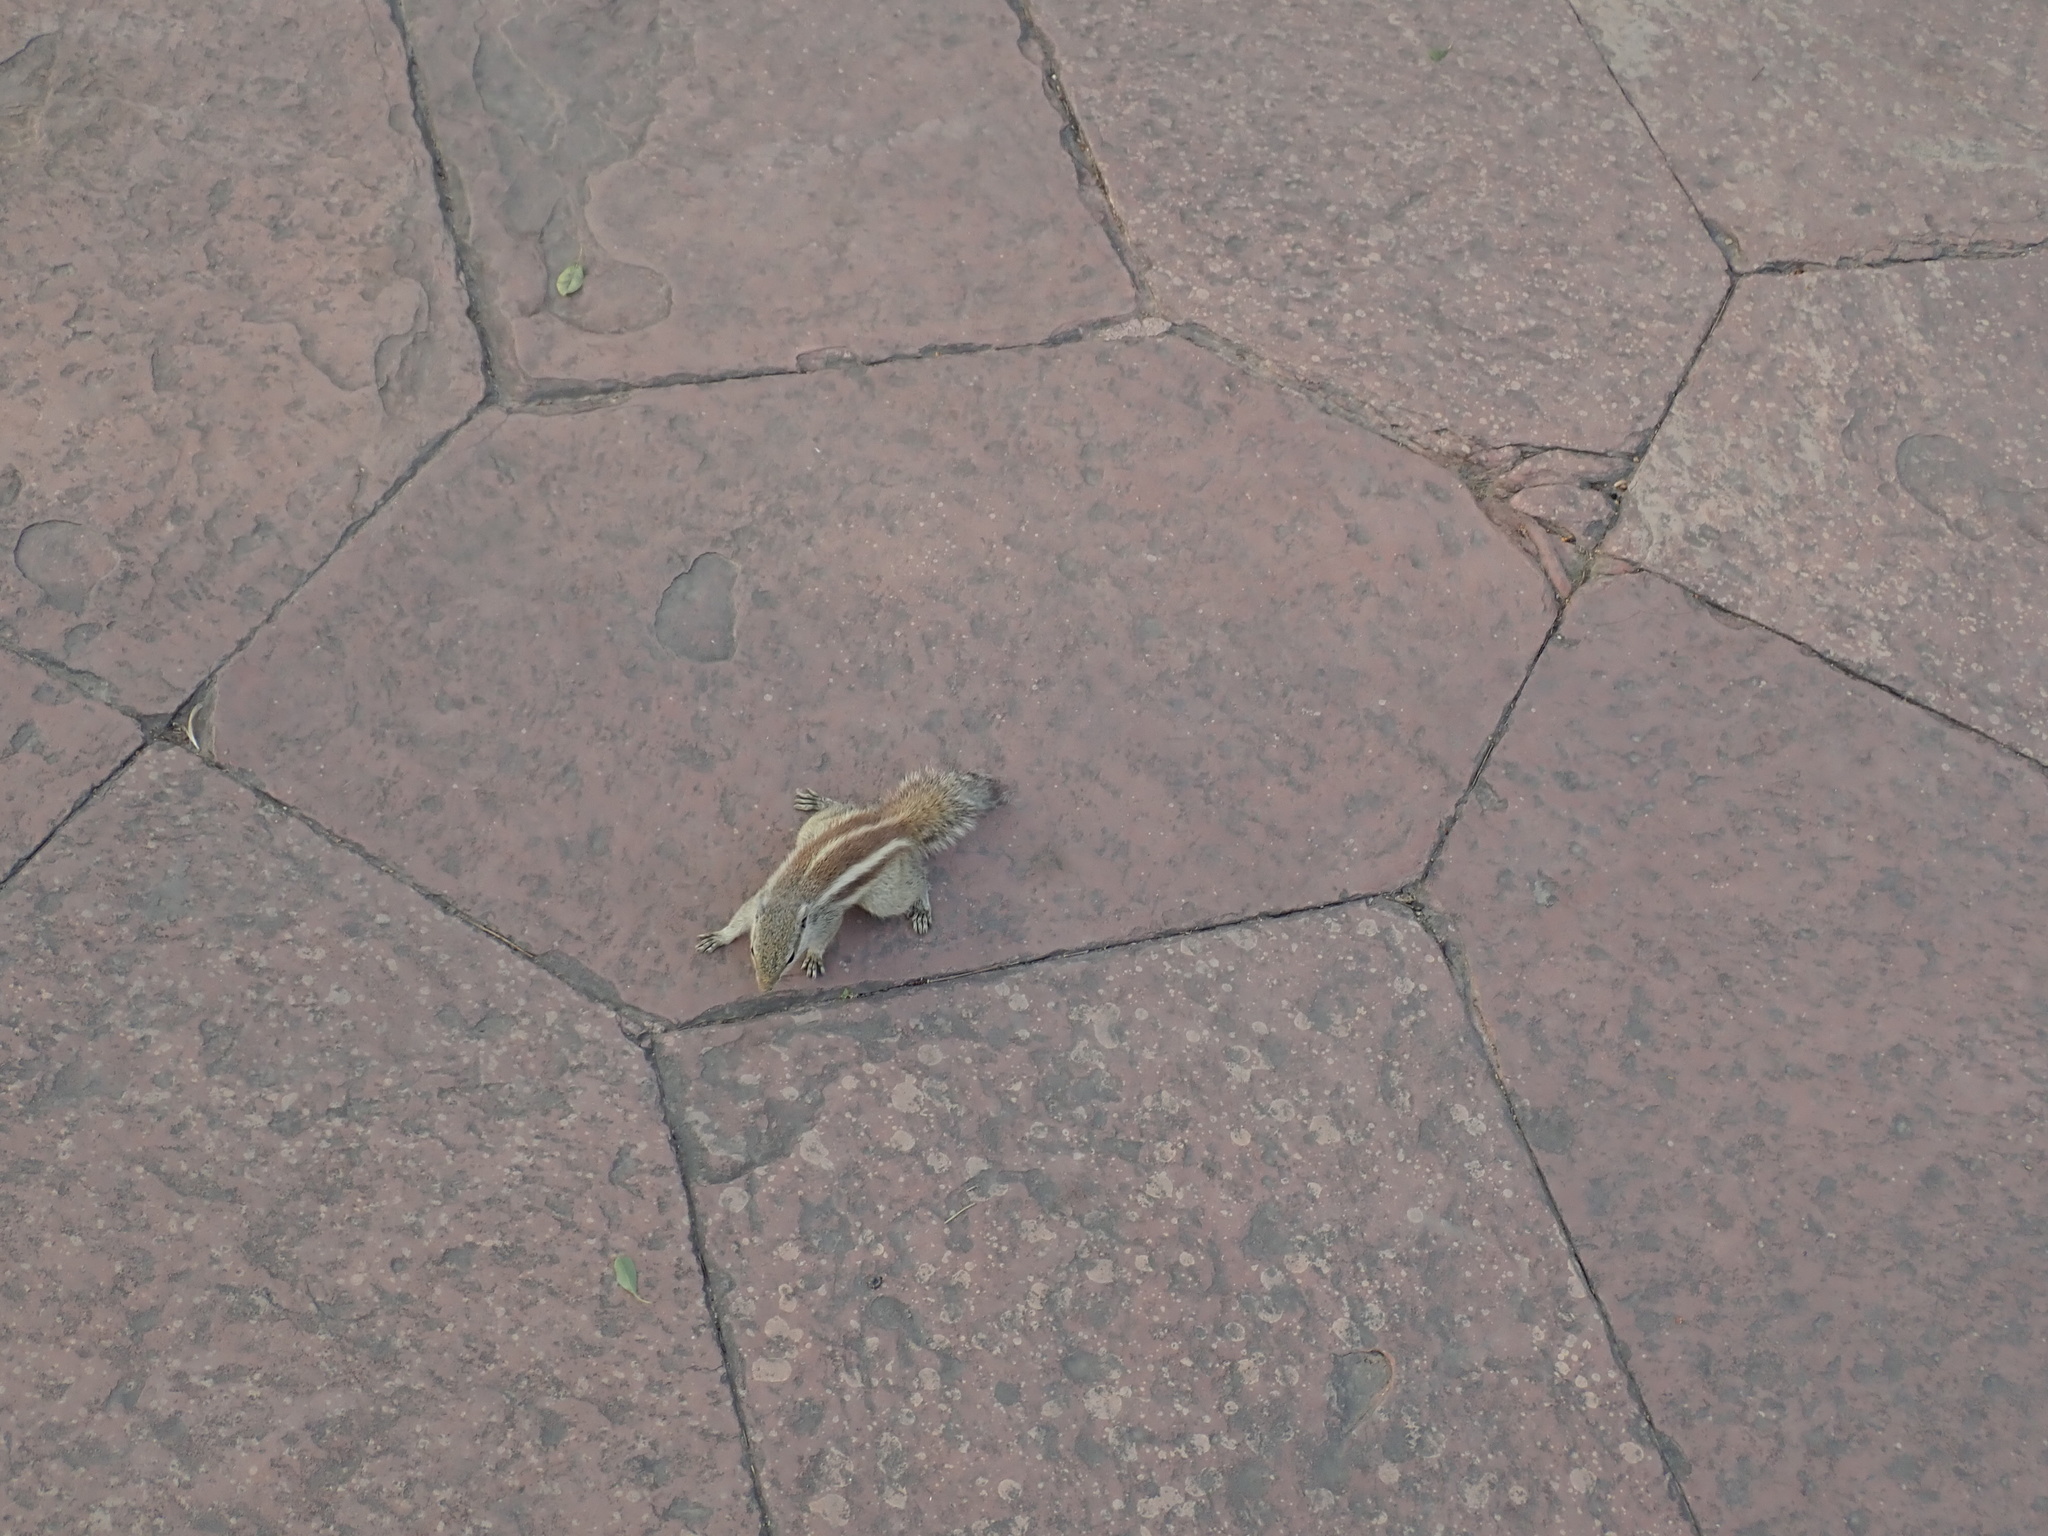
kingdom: Animalia
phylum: Chordata
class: Mammalia
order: Rodentia
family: Sciuridae
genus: Funambulus
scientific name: Funambulus pennantii
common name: Northern palm squirrel
